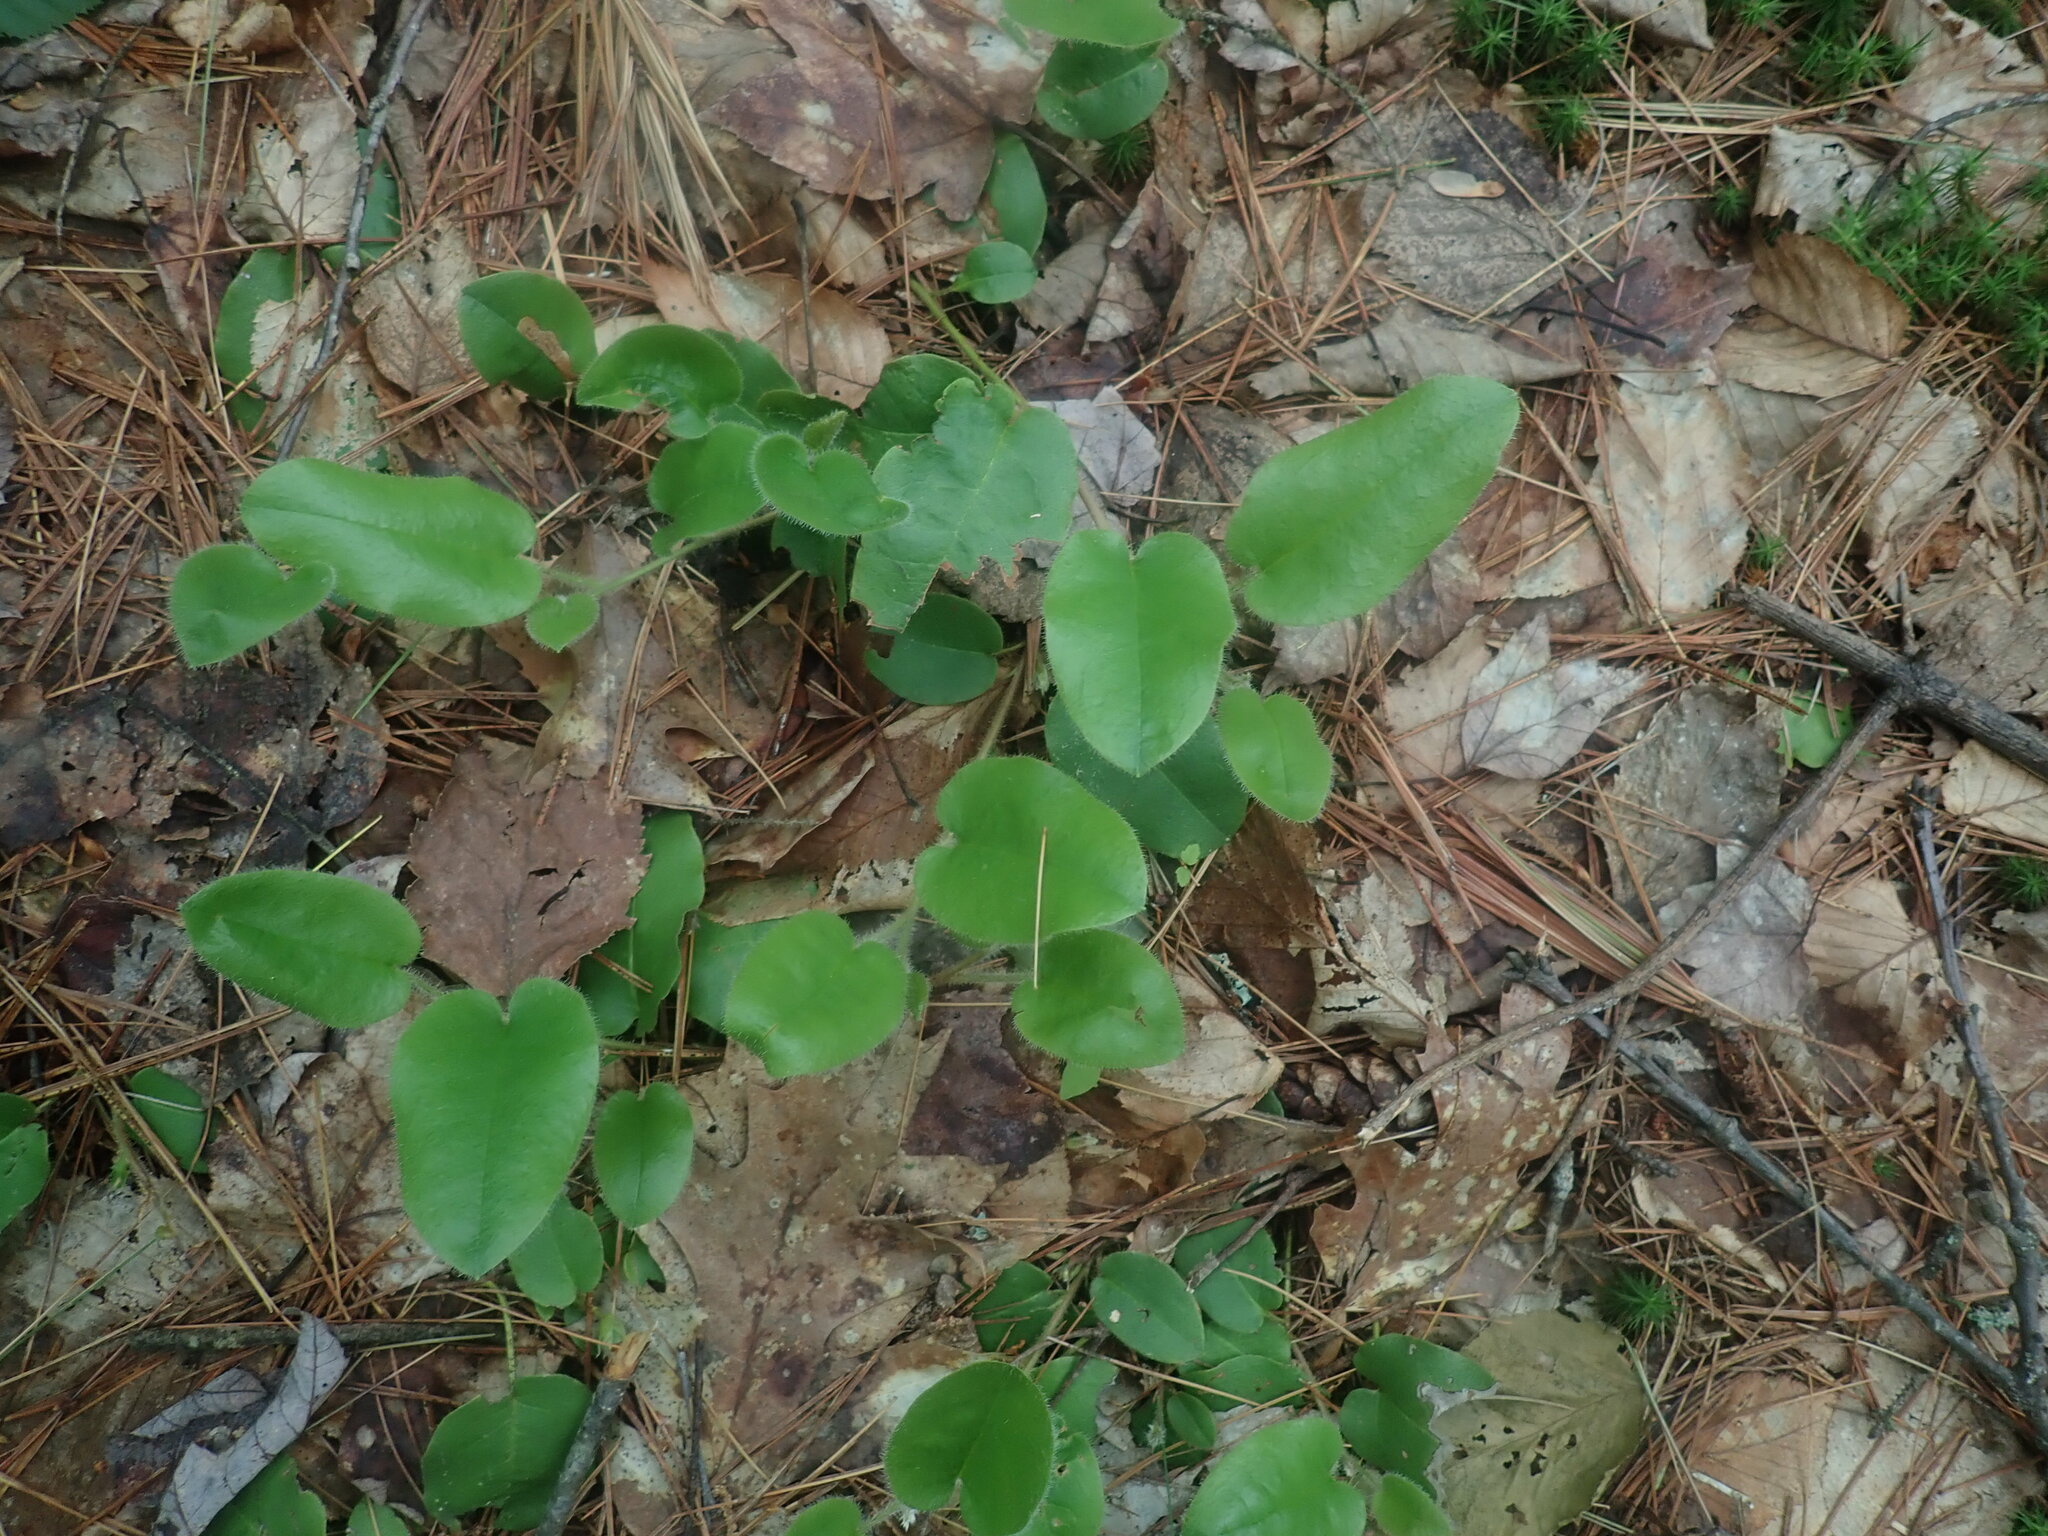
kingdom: Plantae
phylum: Tracheophyta
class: Magnoliopsida
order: Ericales
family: Ericaceae
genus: Epigaea
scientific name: Epigaea repens
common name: Gravelroot
